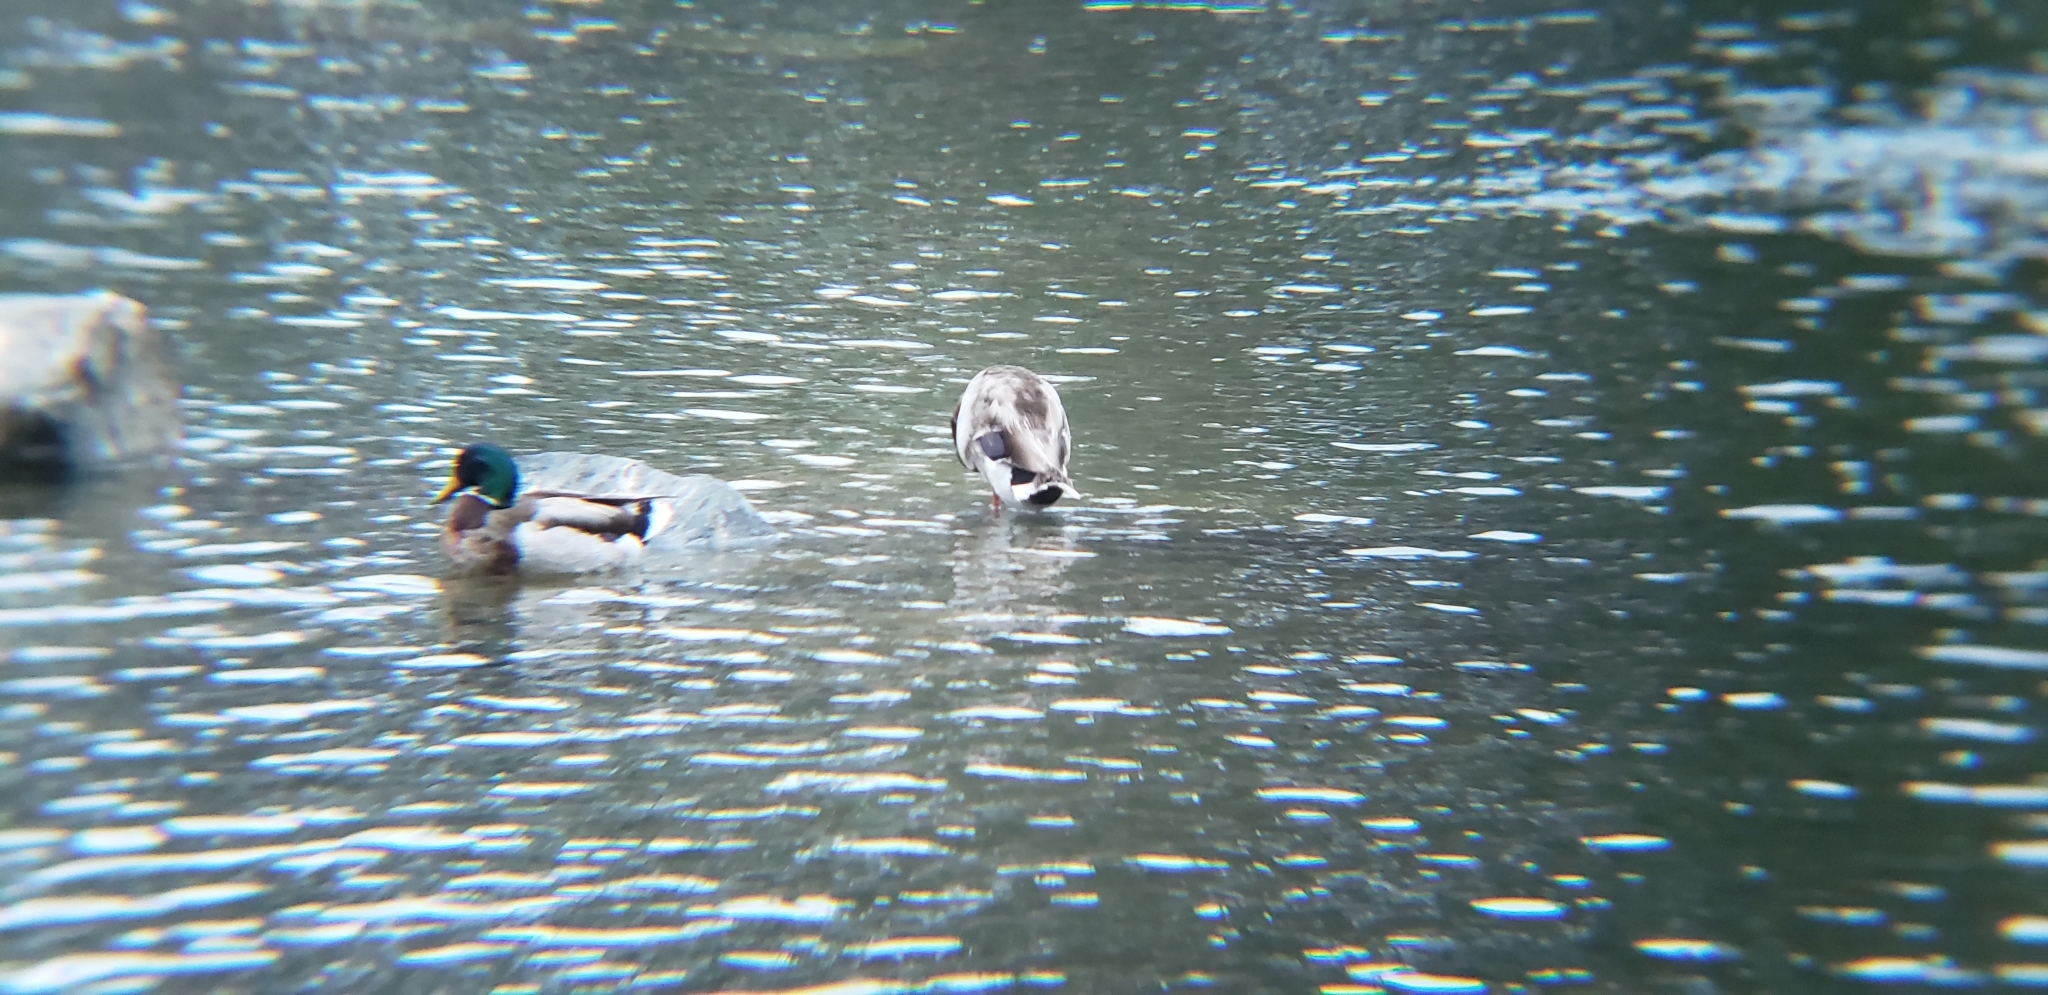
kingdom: Animalia
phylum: Chordata
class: Aves
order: Anseriformes
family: Anatidae
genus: Anas
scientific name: Anas platyrhynchos
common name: Mallard
